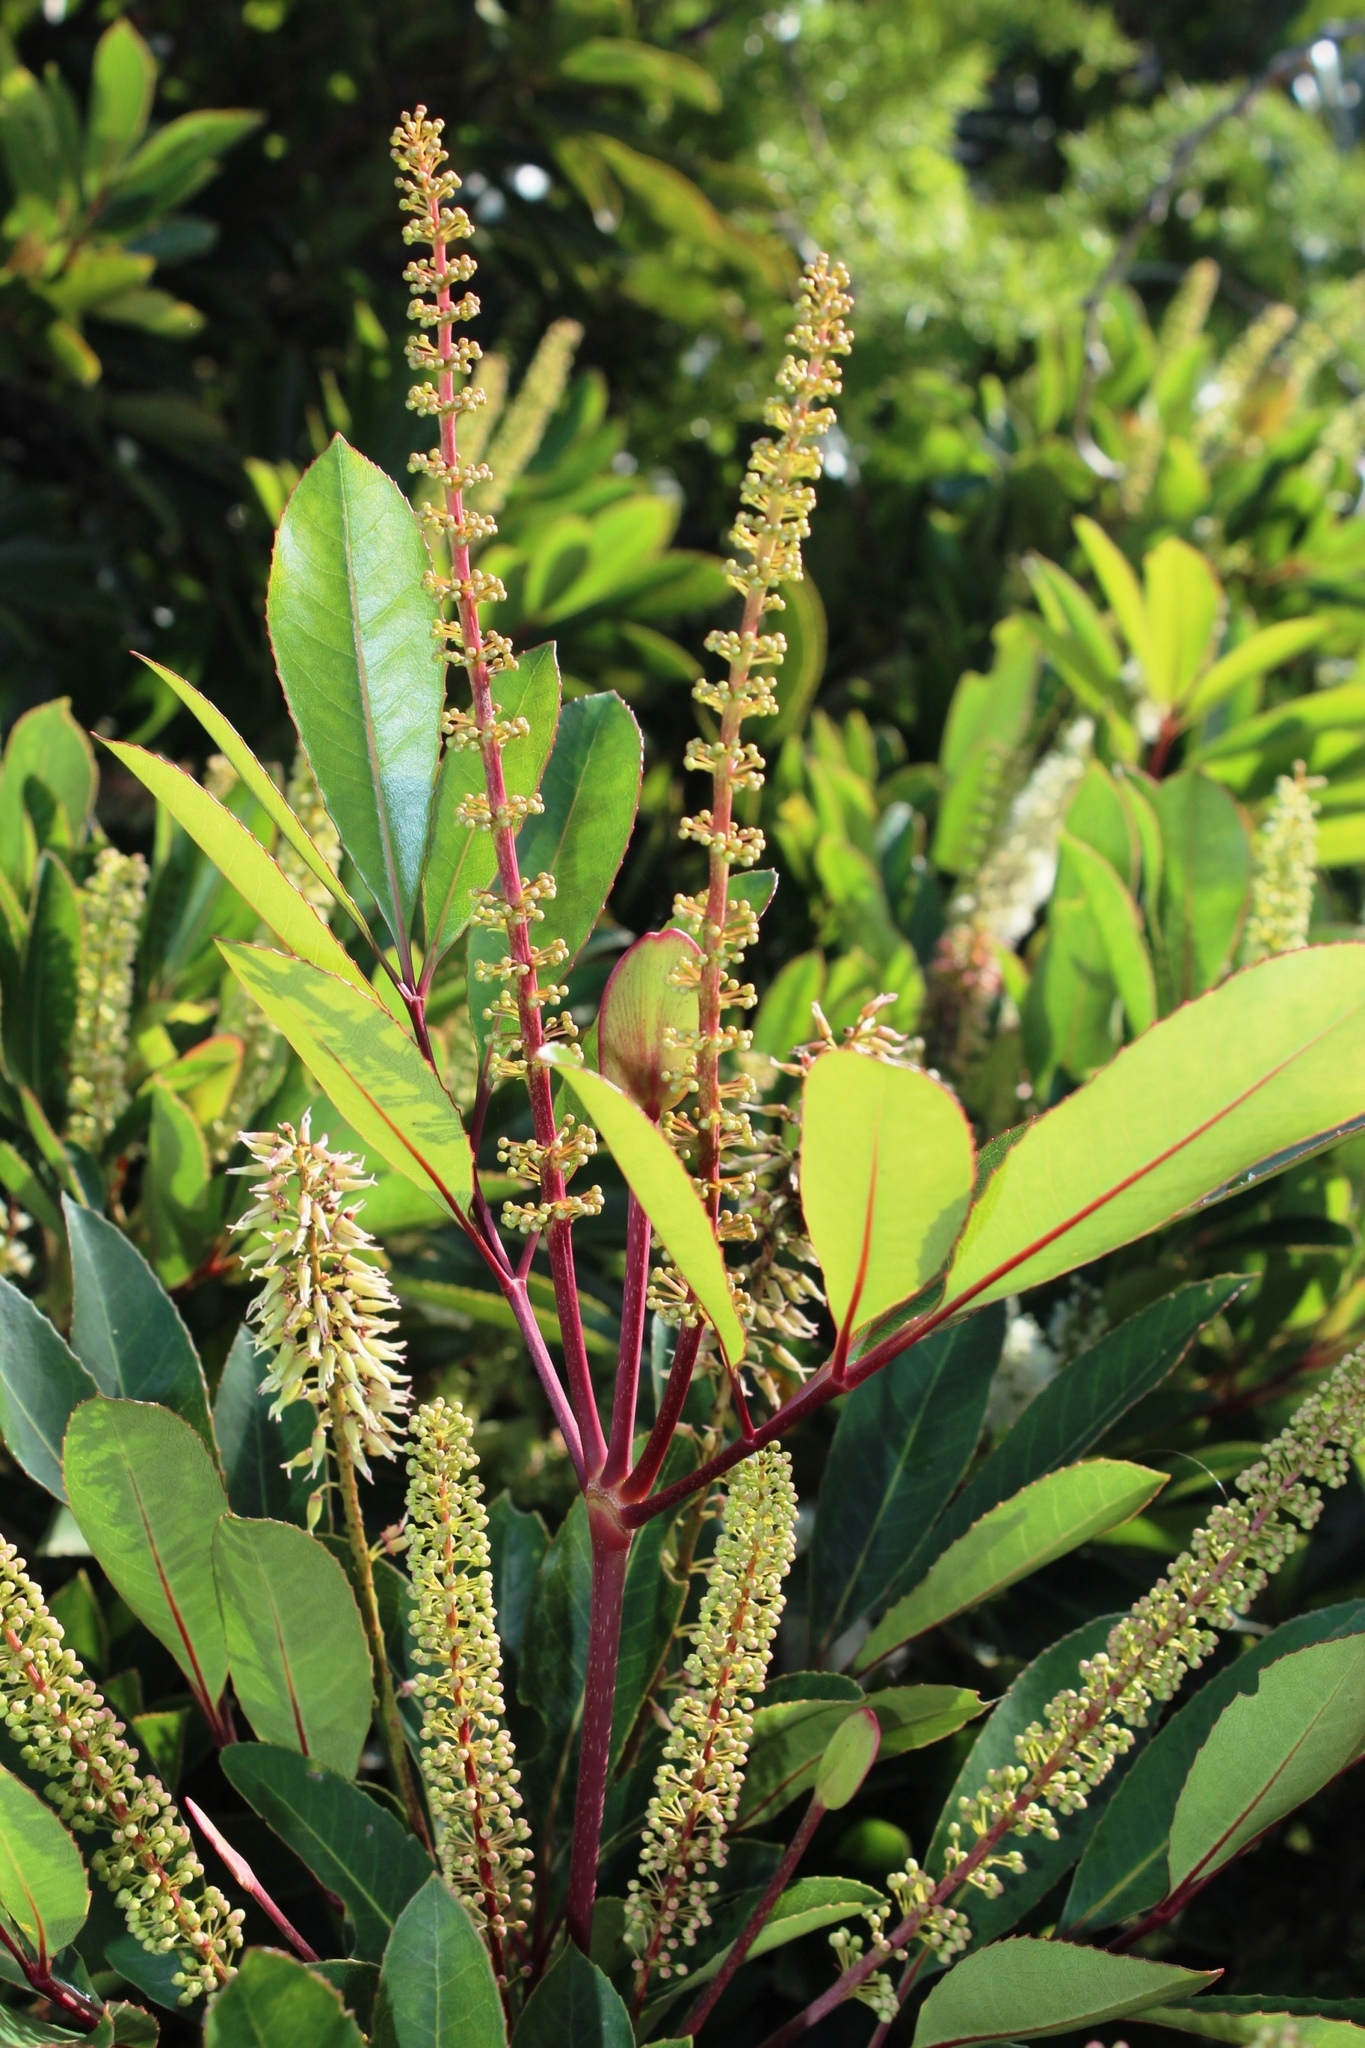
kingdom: Plantae
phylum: Tracheophyta
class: Magnoliopsida
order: Oxalidales
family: Cunoniaceae
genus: Cunonia
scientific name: Cunonia capensis
